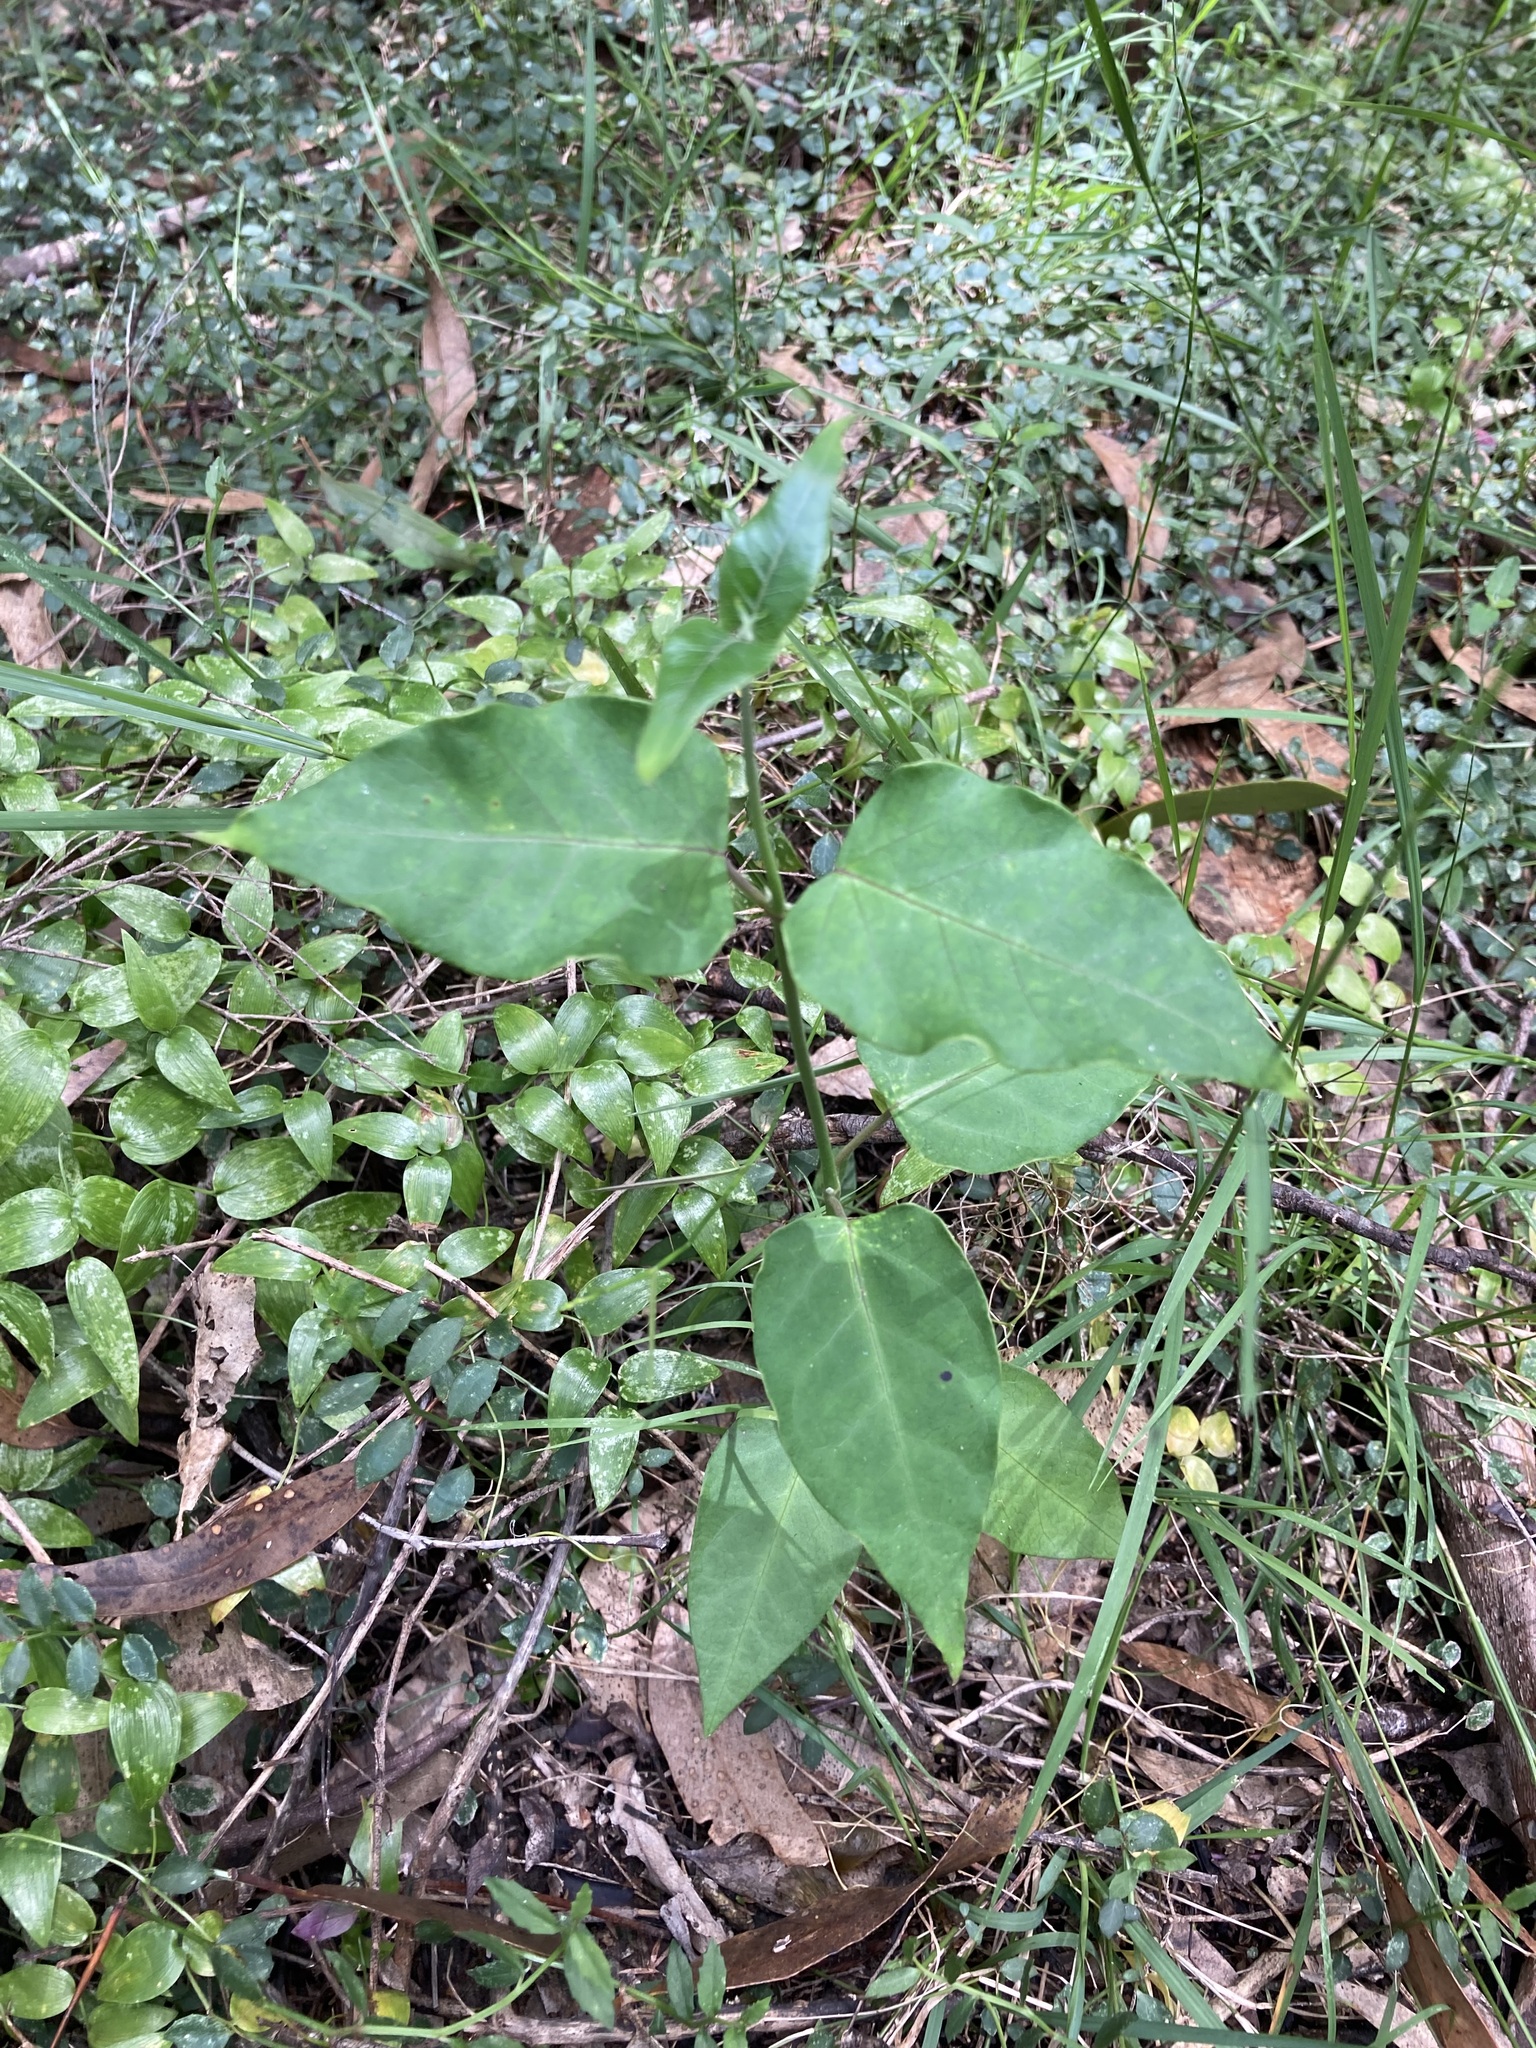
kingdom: Plantae
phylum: Tracheophyta
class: Magnoliopsida
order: Gentianales
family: Apocynaceae
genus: Araujia
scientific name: Araujia sericifera
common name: White bladderflower
